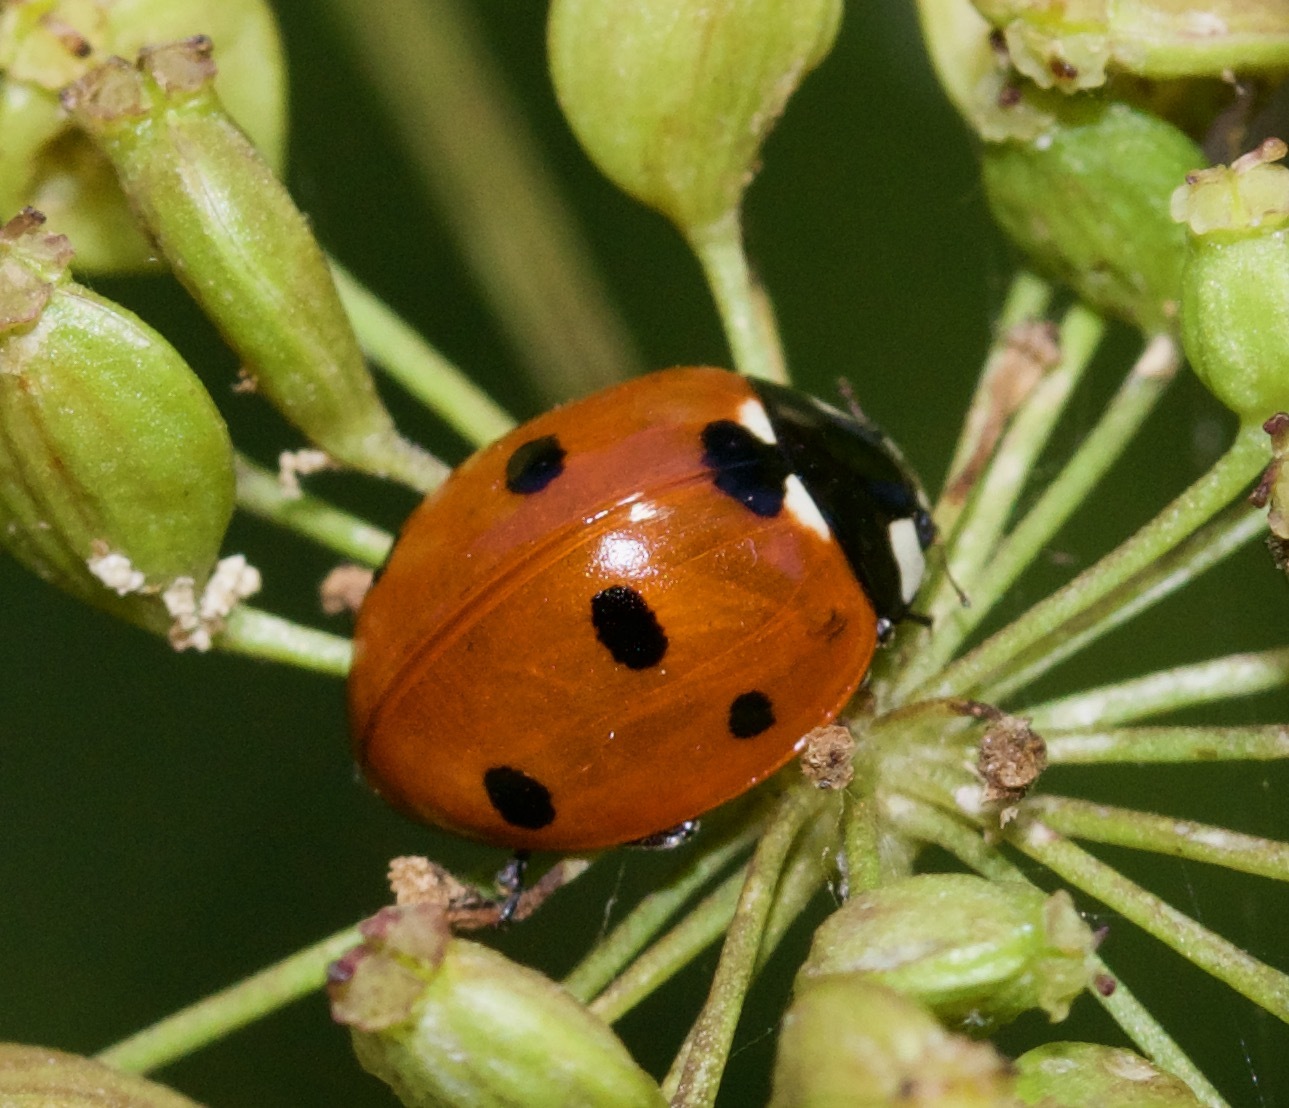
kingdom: Animalia
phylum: Arthropoda
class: Insecta
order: Coleoptera
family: Coccinellidae
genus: Coccinella
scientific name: Coccinella septempunctata
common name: Sevenspotted lady beetle
